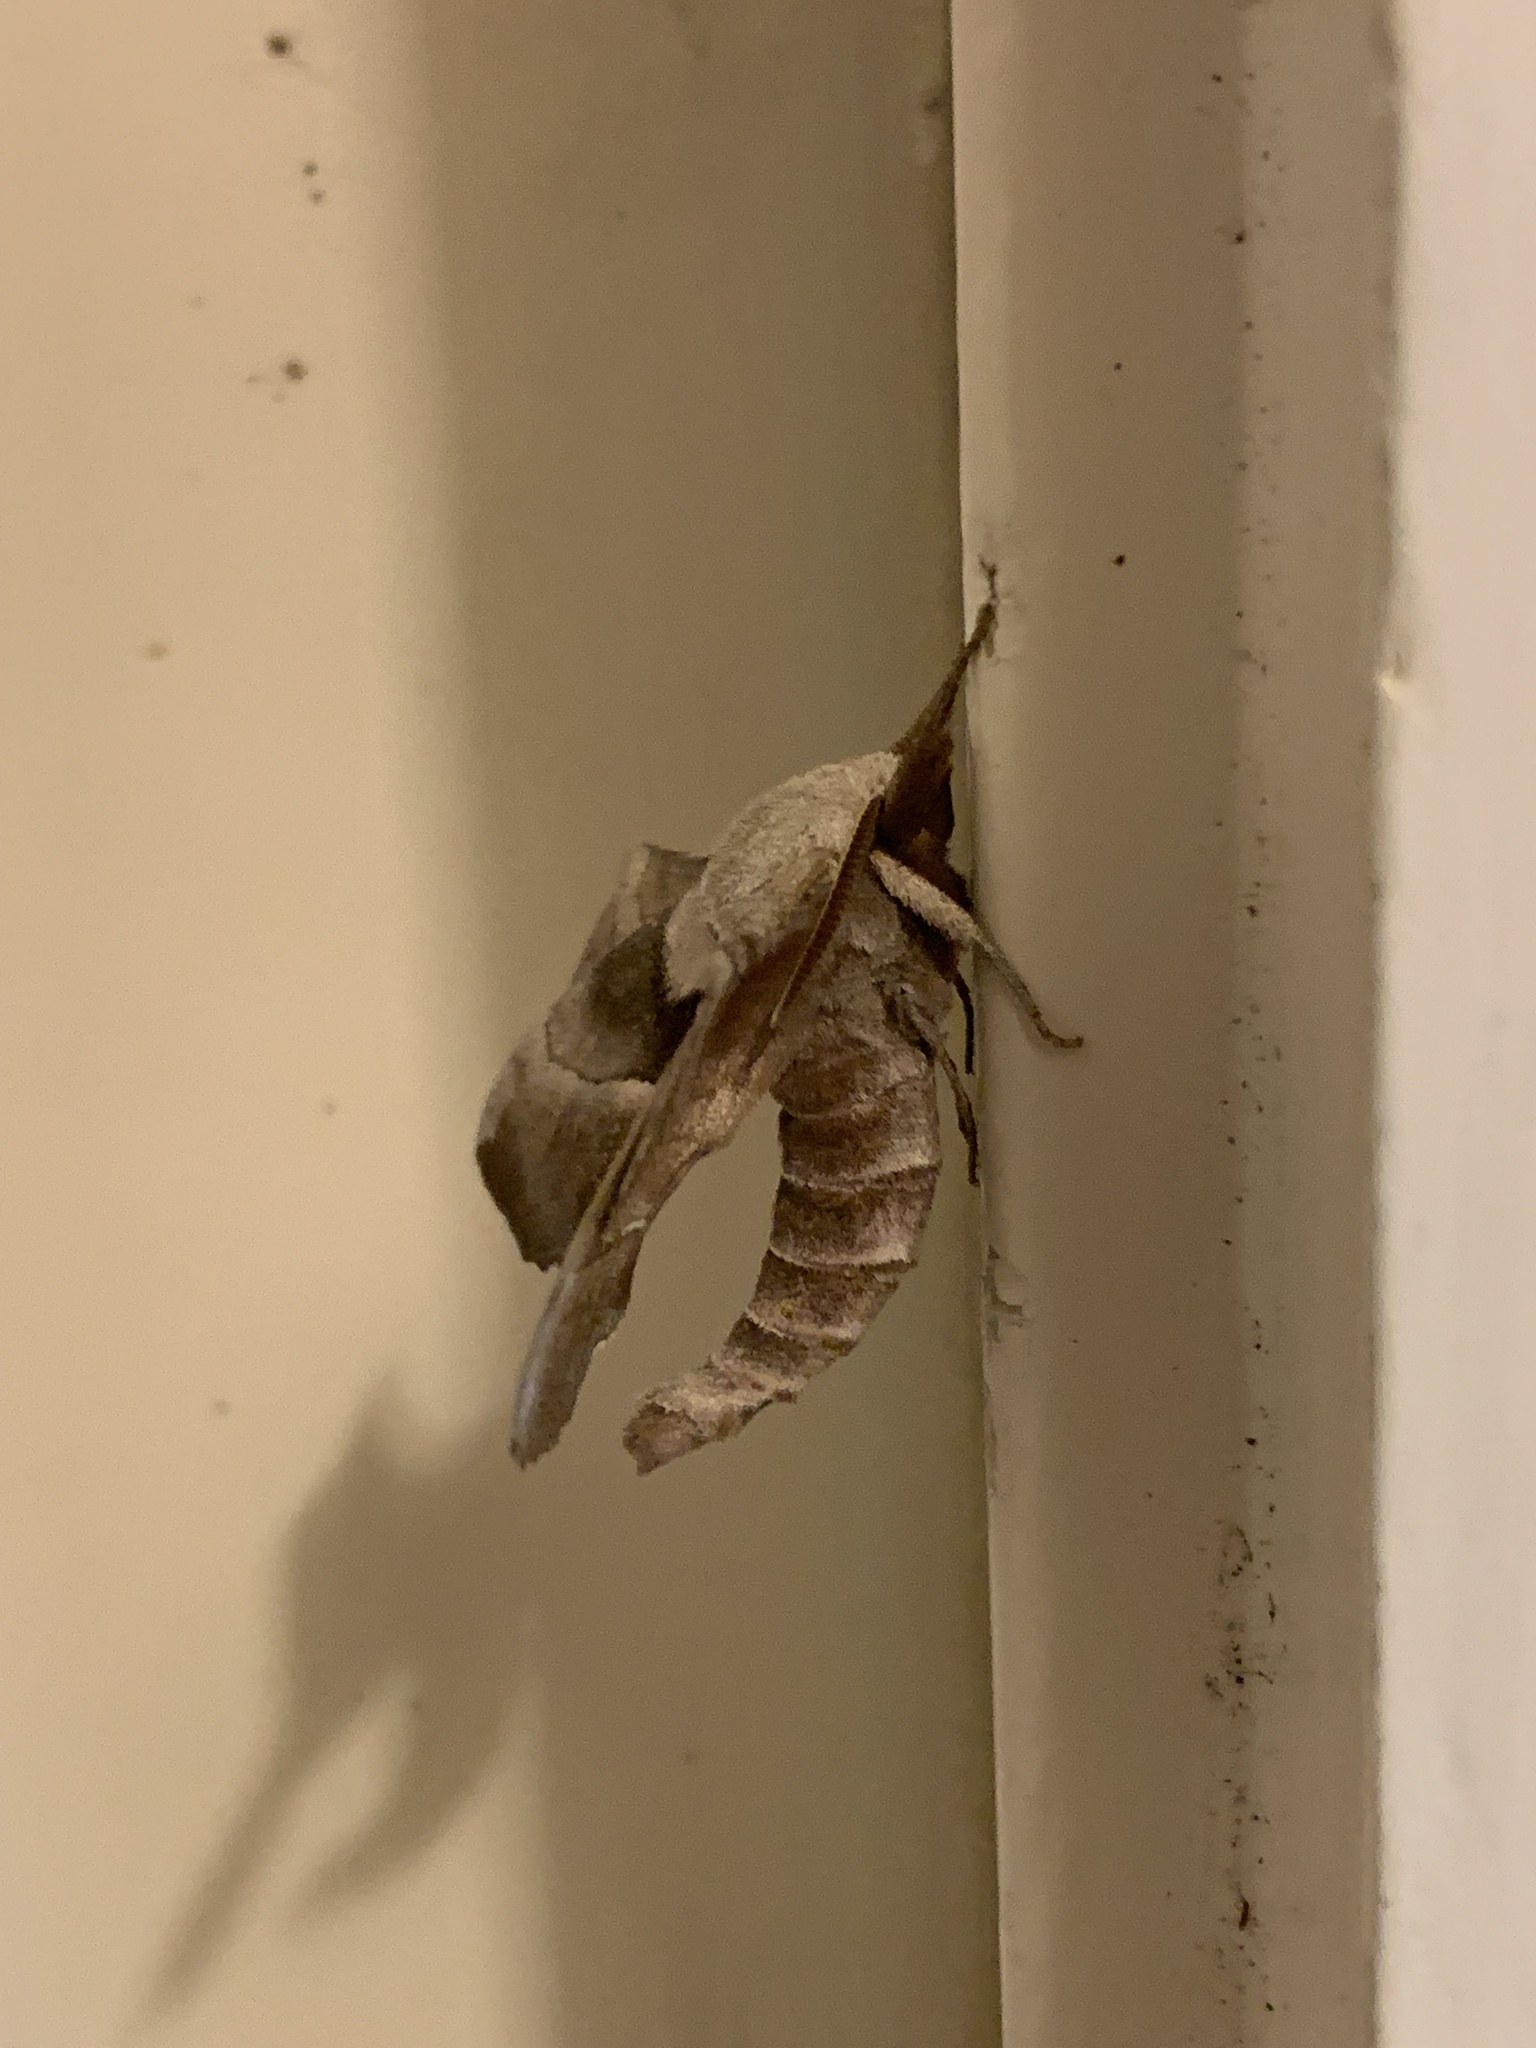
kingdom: Animalia
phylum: Arthropoda
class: Insecta
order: Lepidoptera
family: Sphingidae
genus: Amorpha
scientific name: Amorpha juglandis
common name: Walnut sphinx
